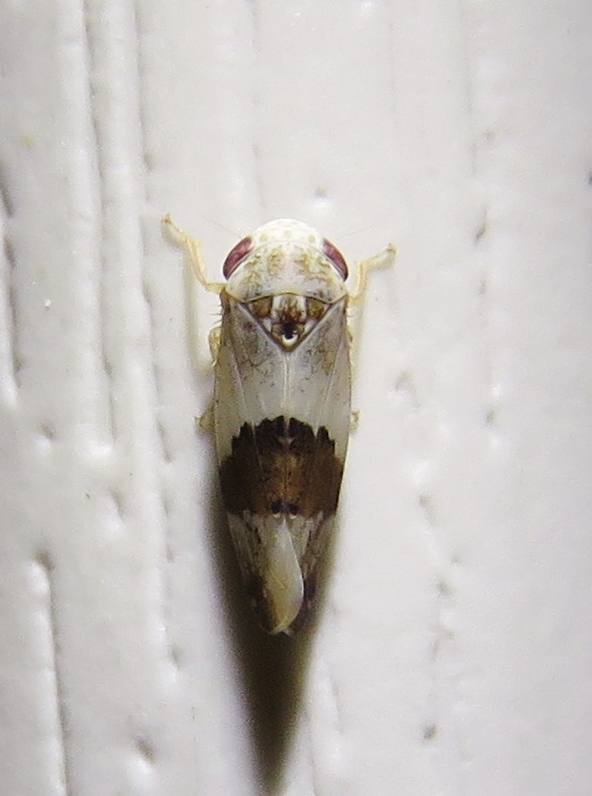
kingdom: Animalia
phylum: Arthropoda
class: Insecta
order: Hemiptera
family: Cicadellidae
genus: Norvellina
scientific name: Norvellina seminuda
